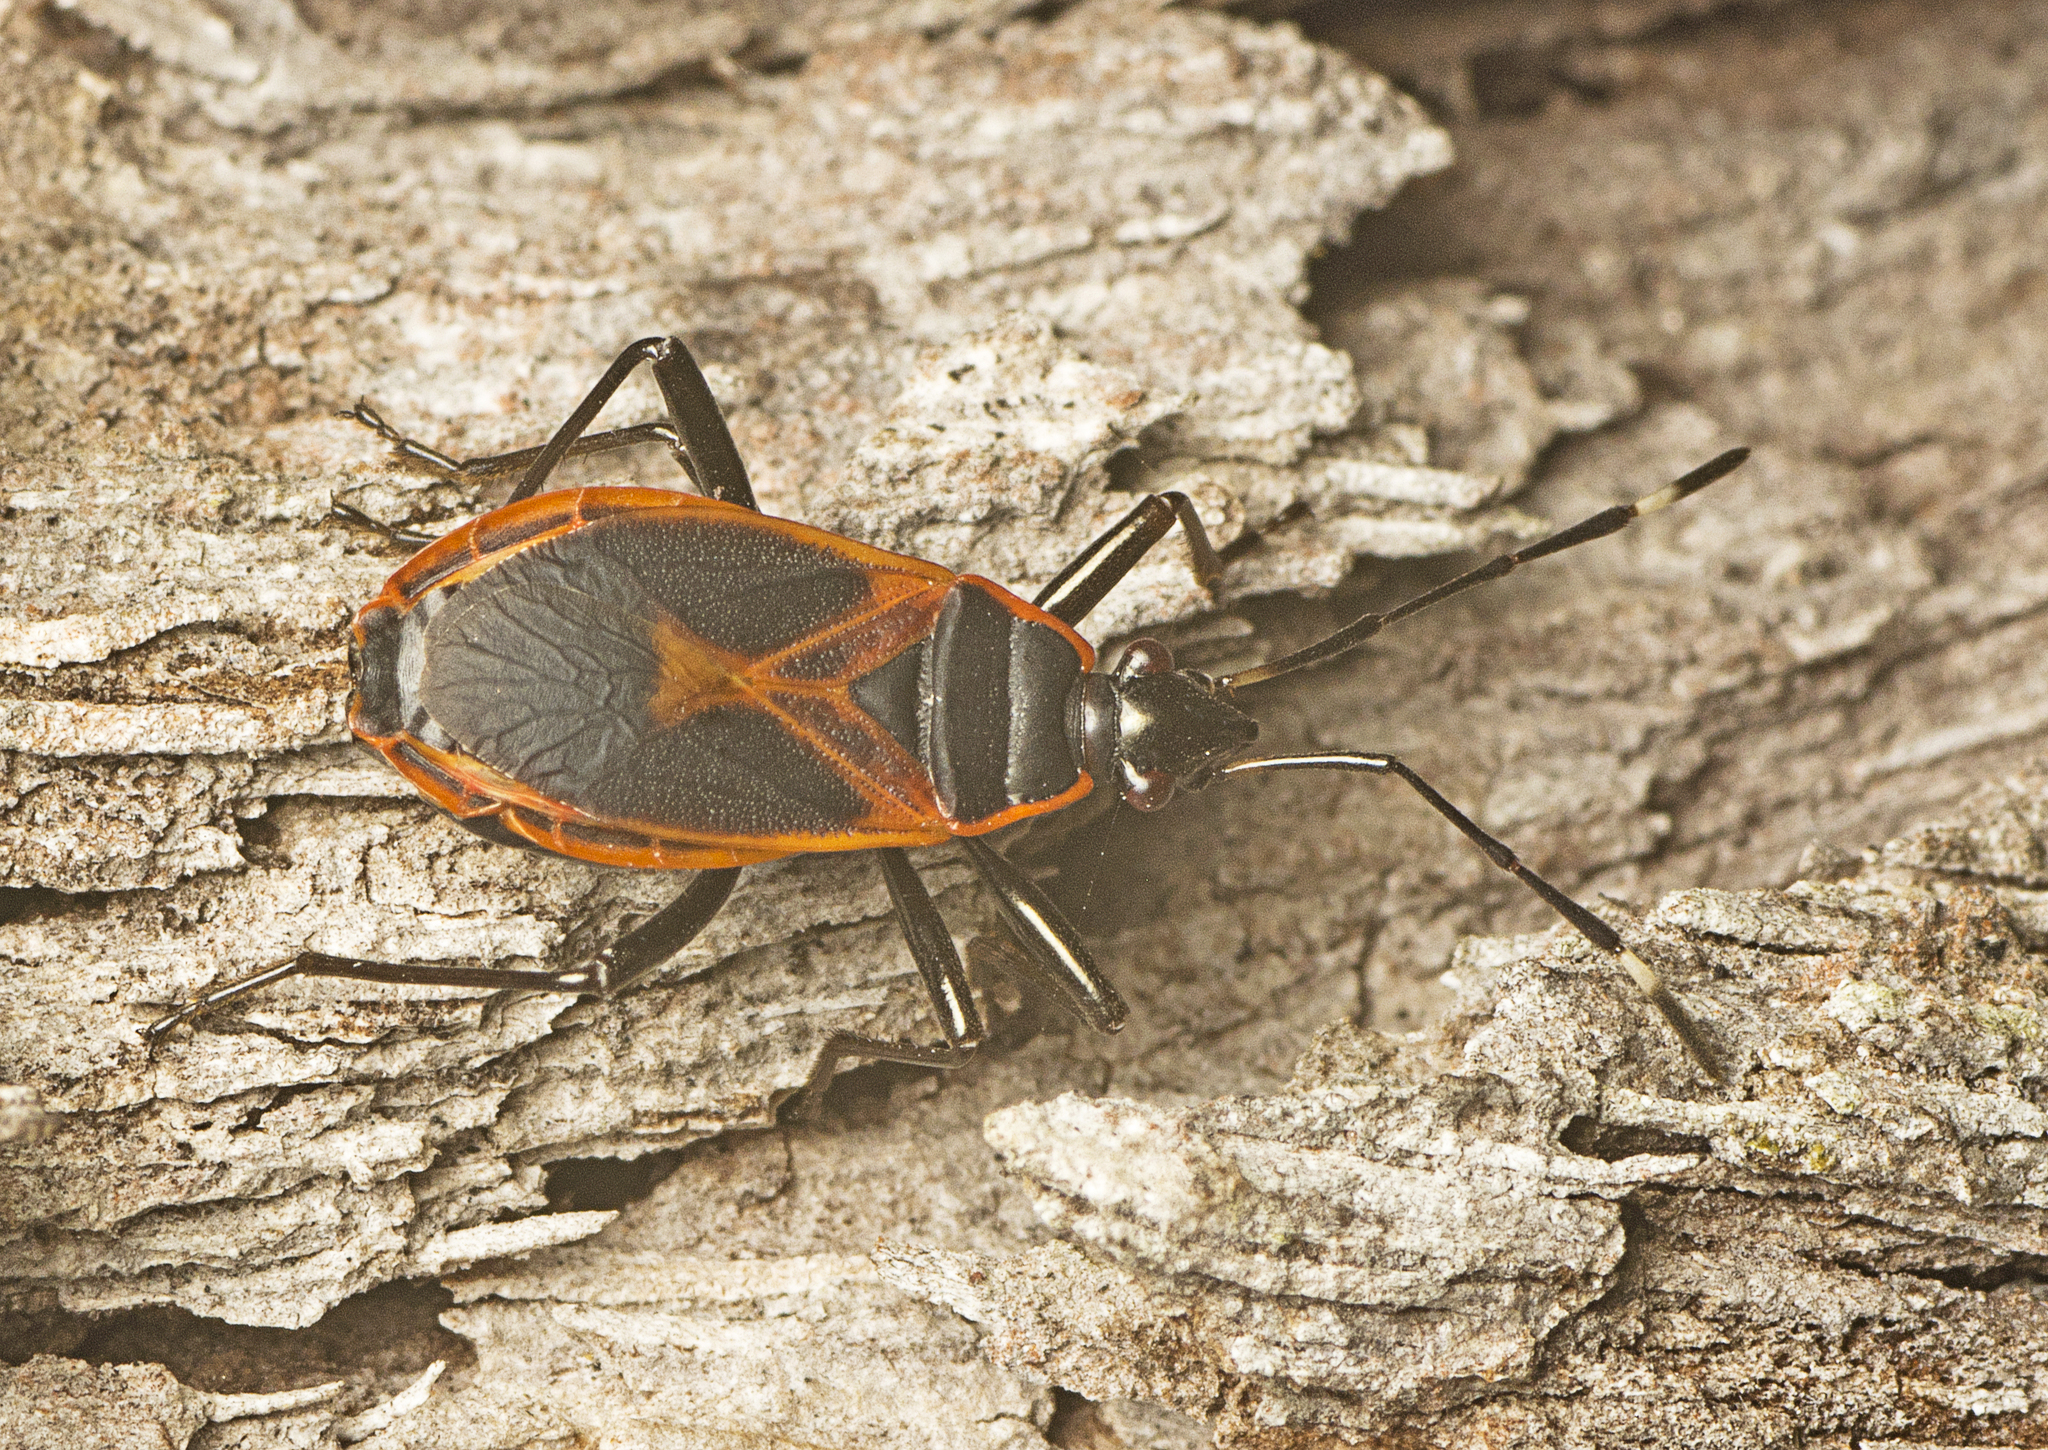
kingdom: Animalia
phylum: Arthropoda
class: Insecta
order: Hemiptera
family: Pyrrhocoridae
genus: Dindymus
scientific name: Dindymus
